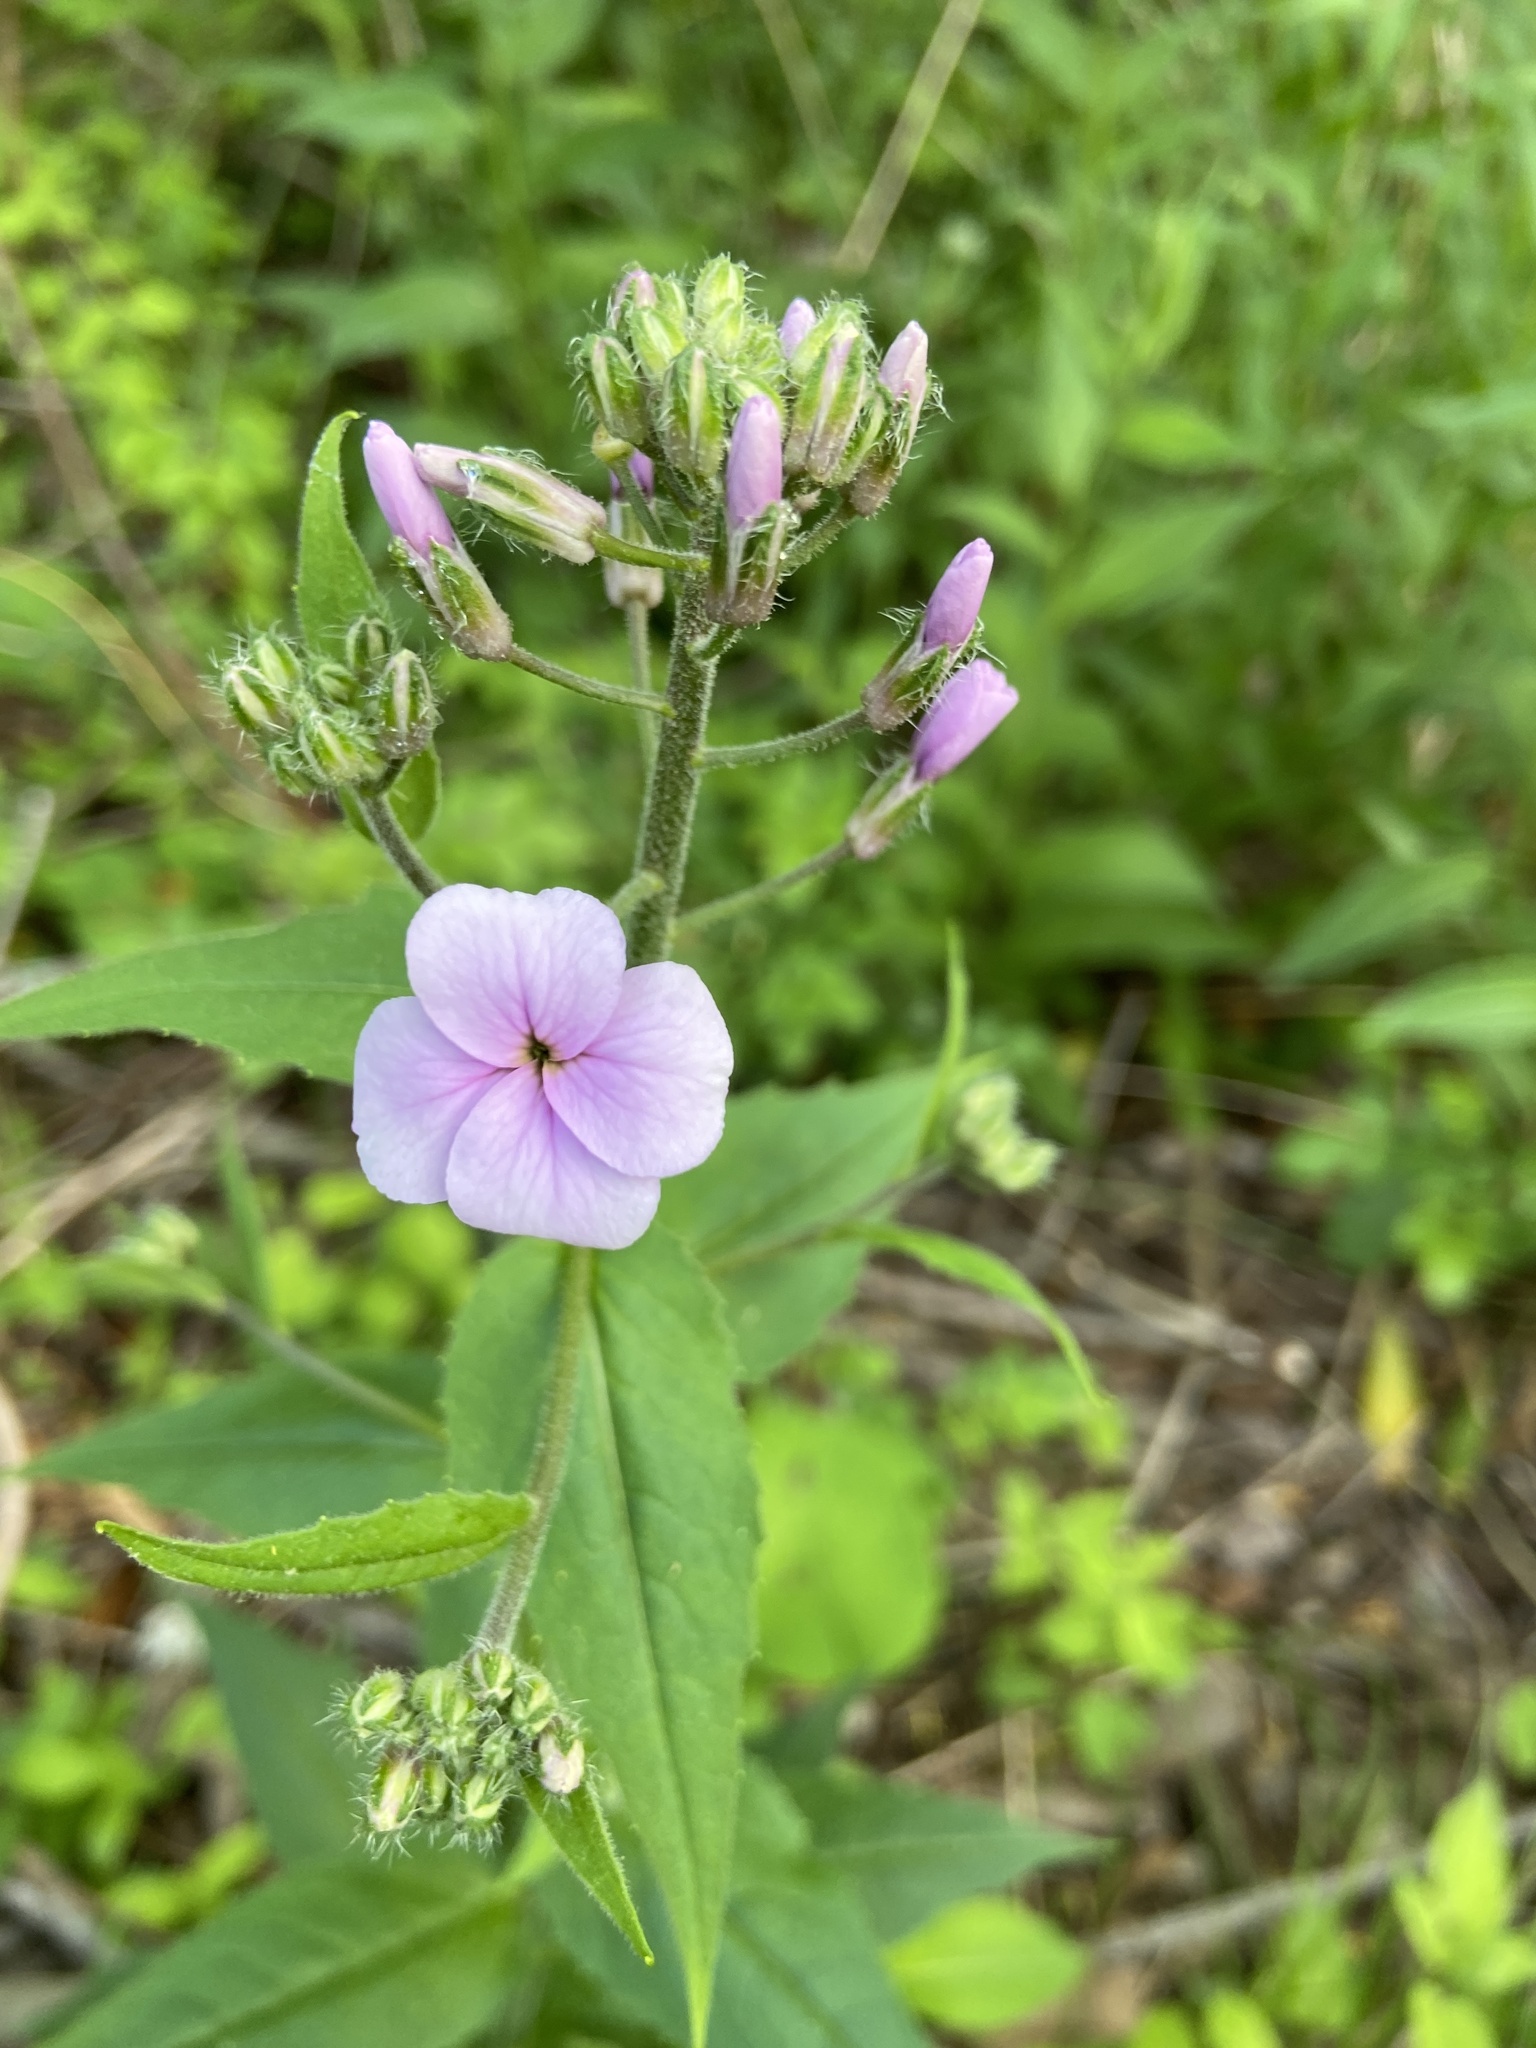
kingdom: Plantae
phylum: Tracheophyta
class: Magnoliopsida
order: Brassicales
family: Brassicaceae
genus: Hesperis
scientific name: Hesperis matronalis
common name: Dame's-violet
